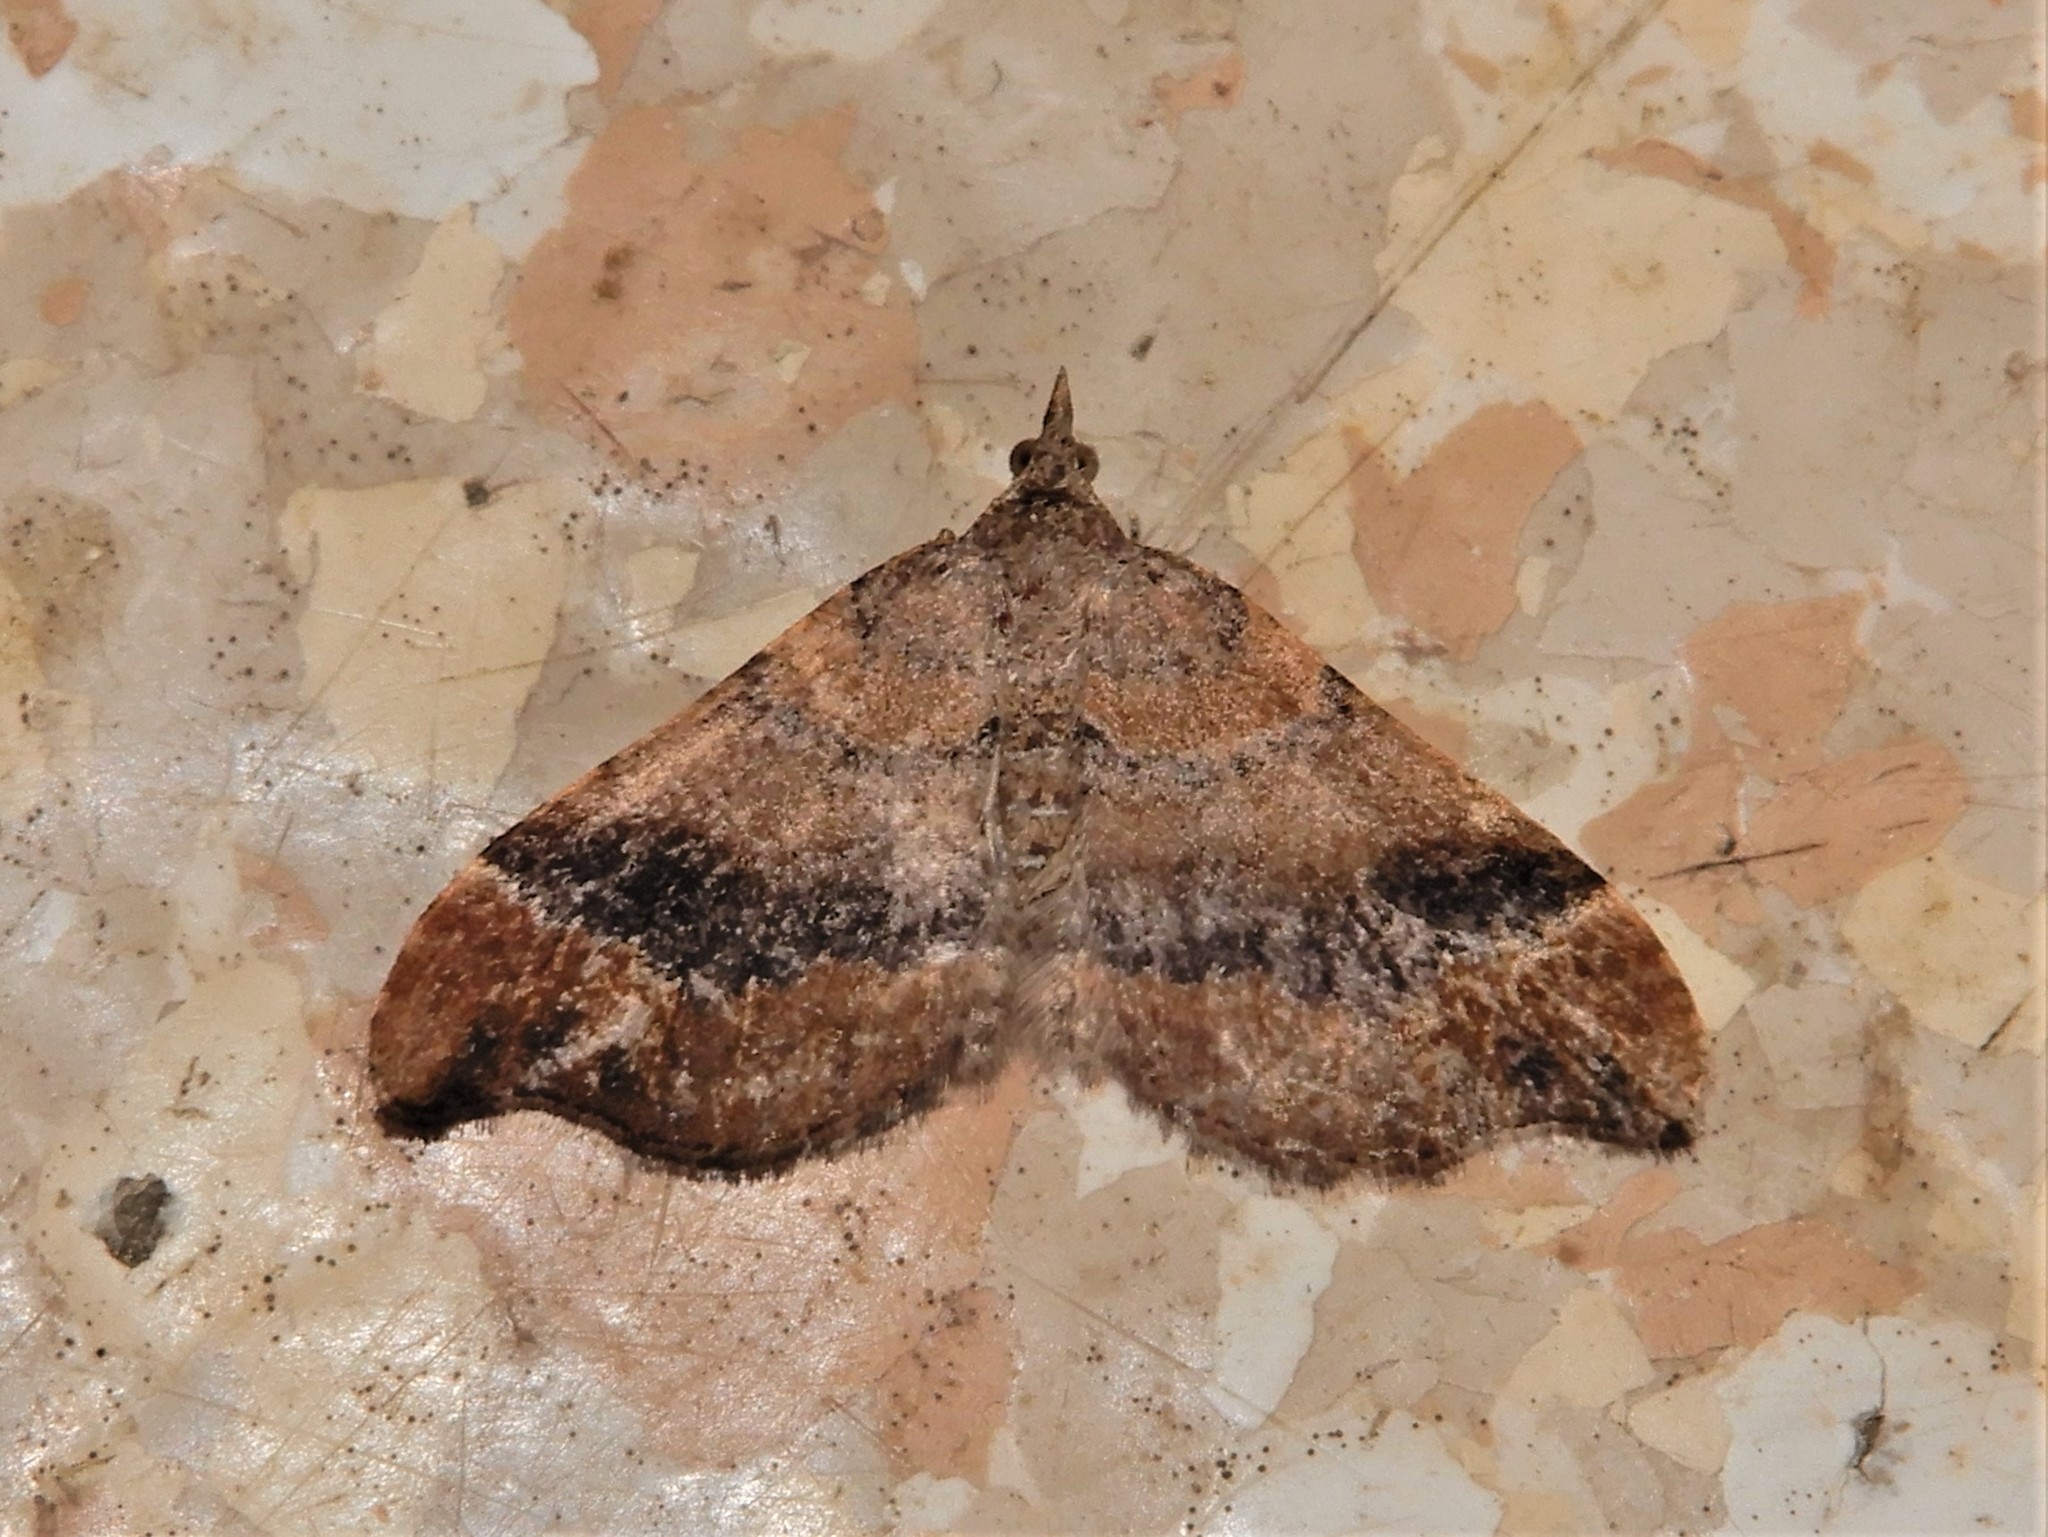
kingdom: Animalia
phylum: Arthropoda
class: Insecta
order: Lepidoptera
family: Geometridae
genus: Homodotis
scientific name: Homodotis megaspilata
